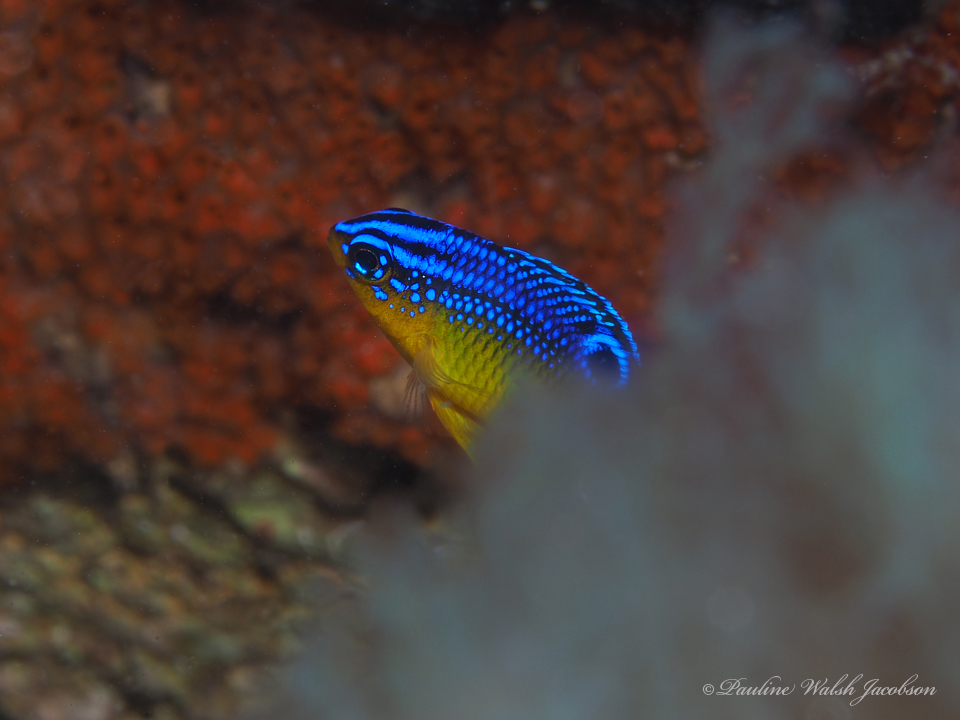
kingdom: Animalia
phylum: Chordata
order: Perciformes
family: Pomacentridae
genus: Stegastes
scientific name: Stegastes xanthurus
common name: Cocoa damselfish
